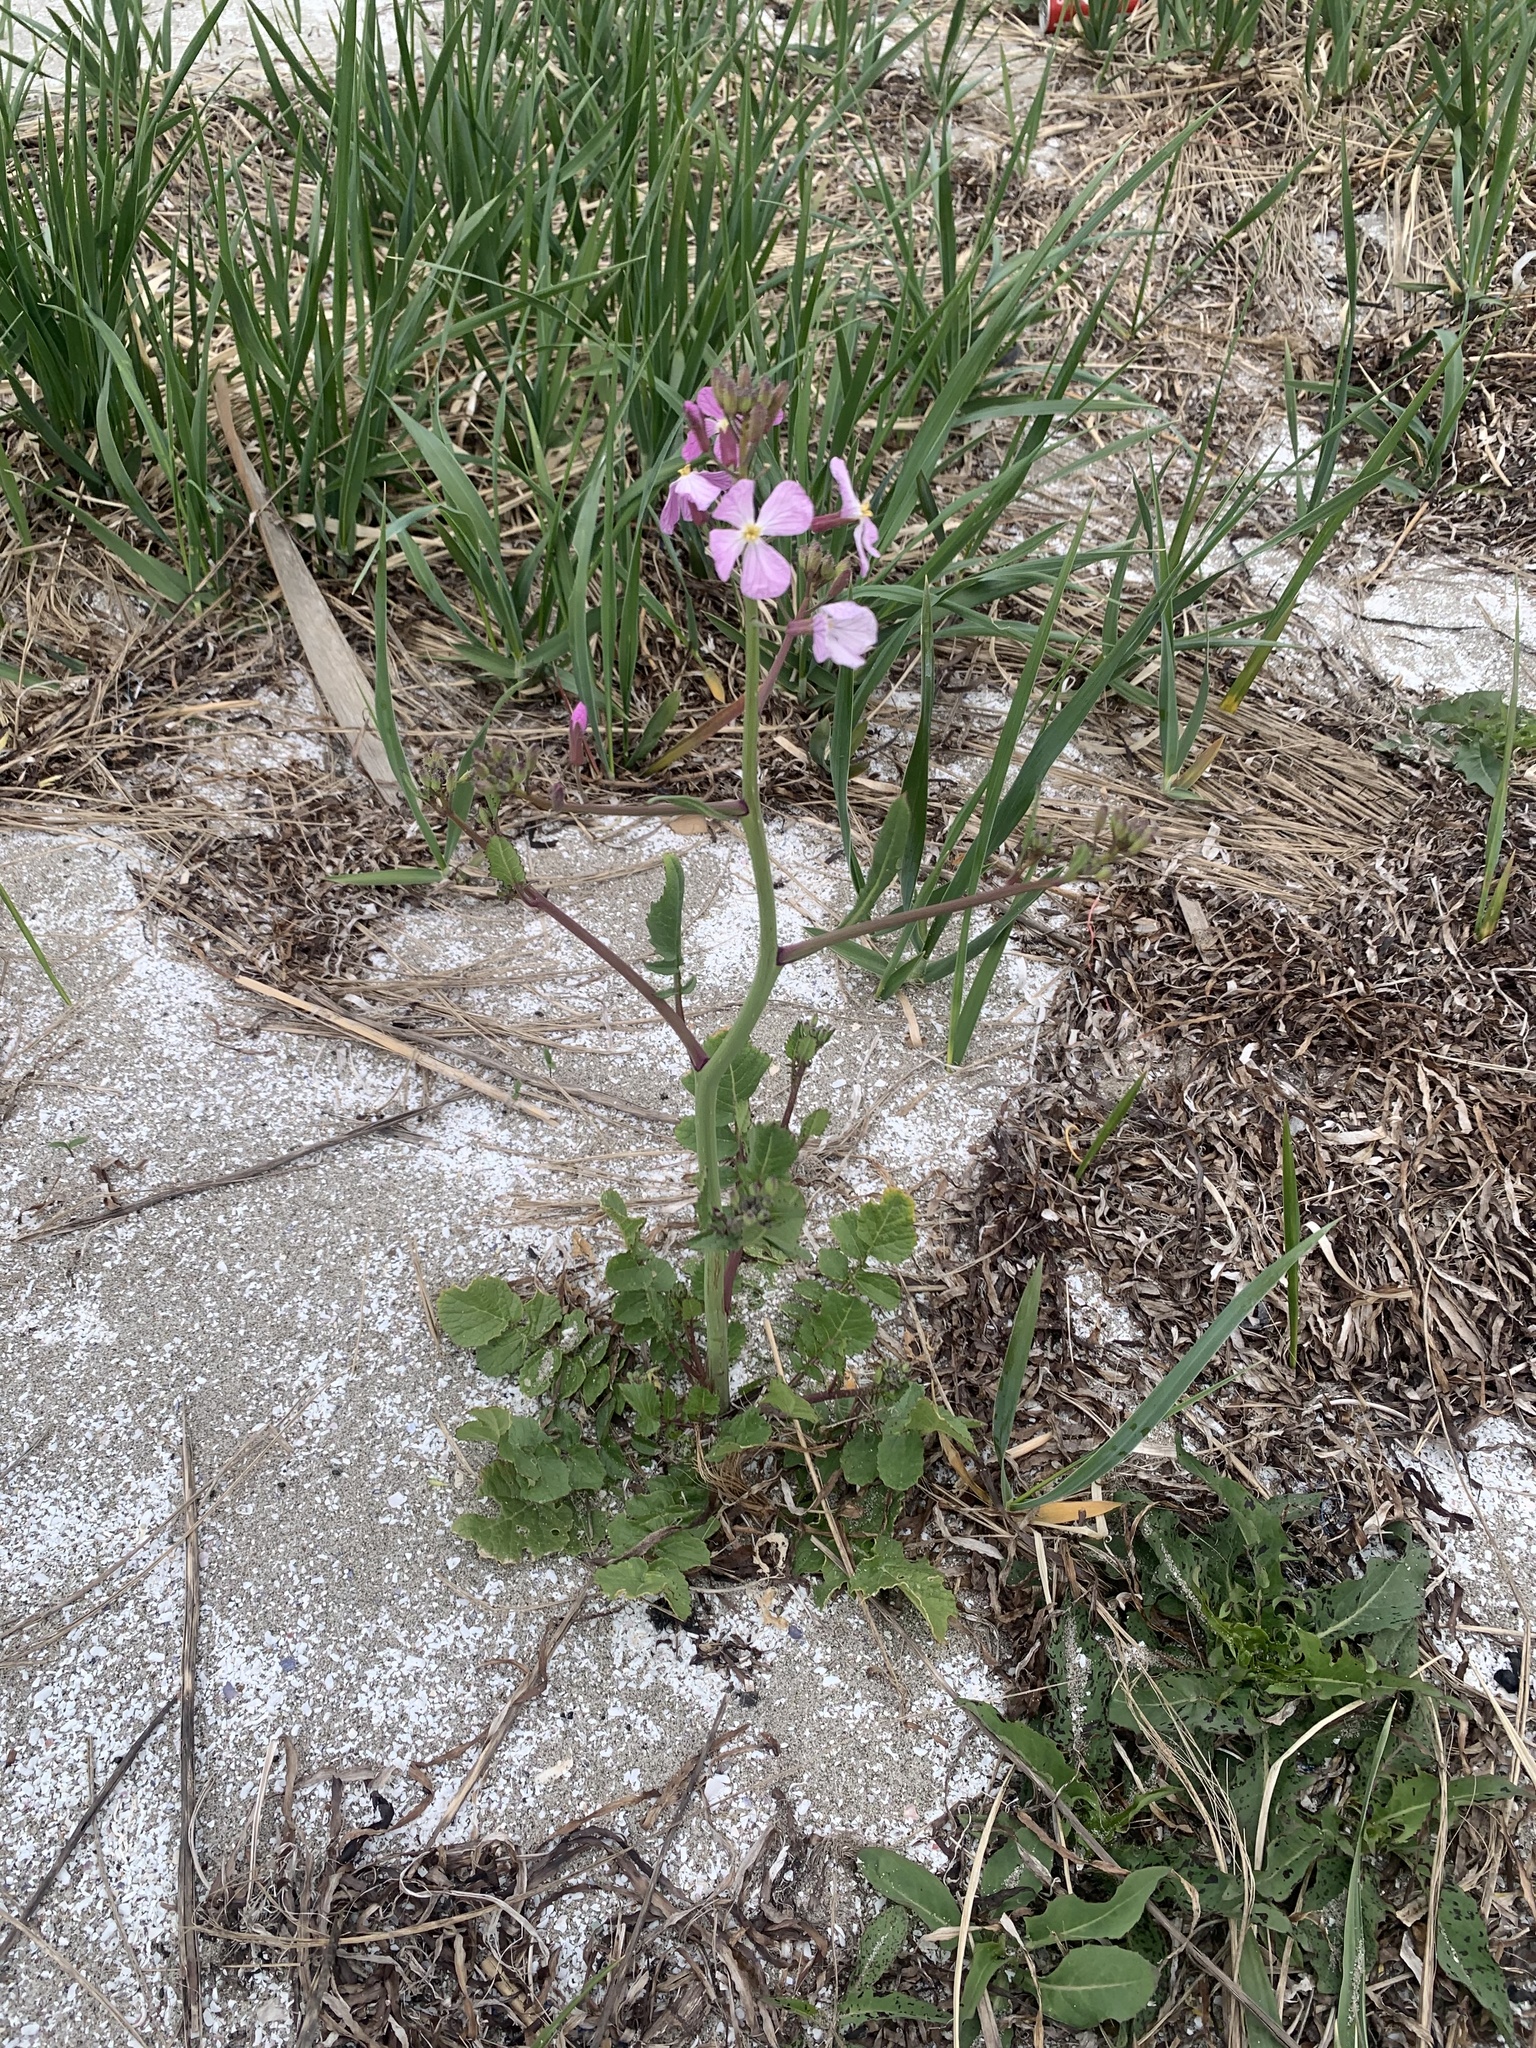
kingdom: Plantae
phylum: Tracheophyta
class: Magnoliopsida
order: Brassicales
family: Brassicaceae
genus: Raphanus
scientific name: Raphanus sativus
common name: Cultivated radish
